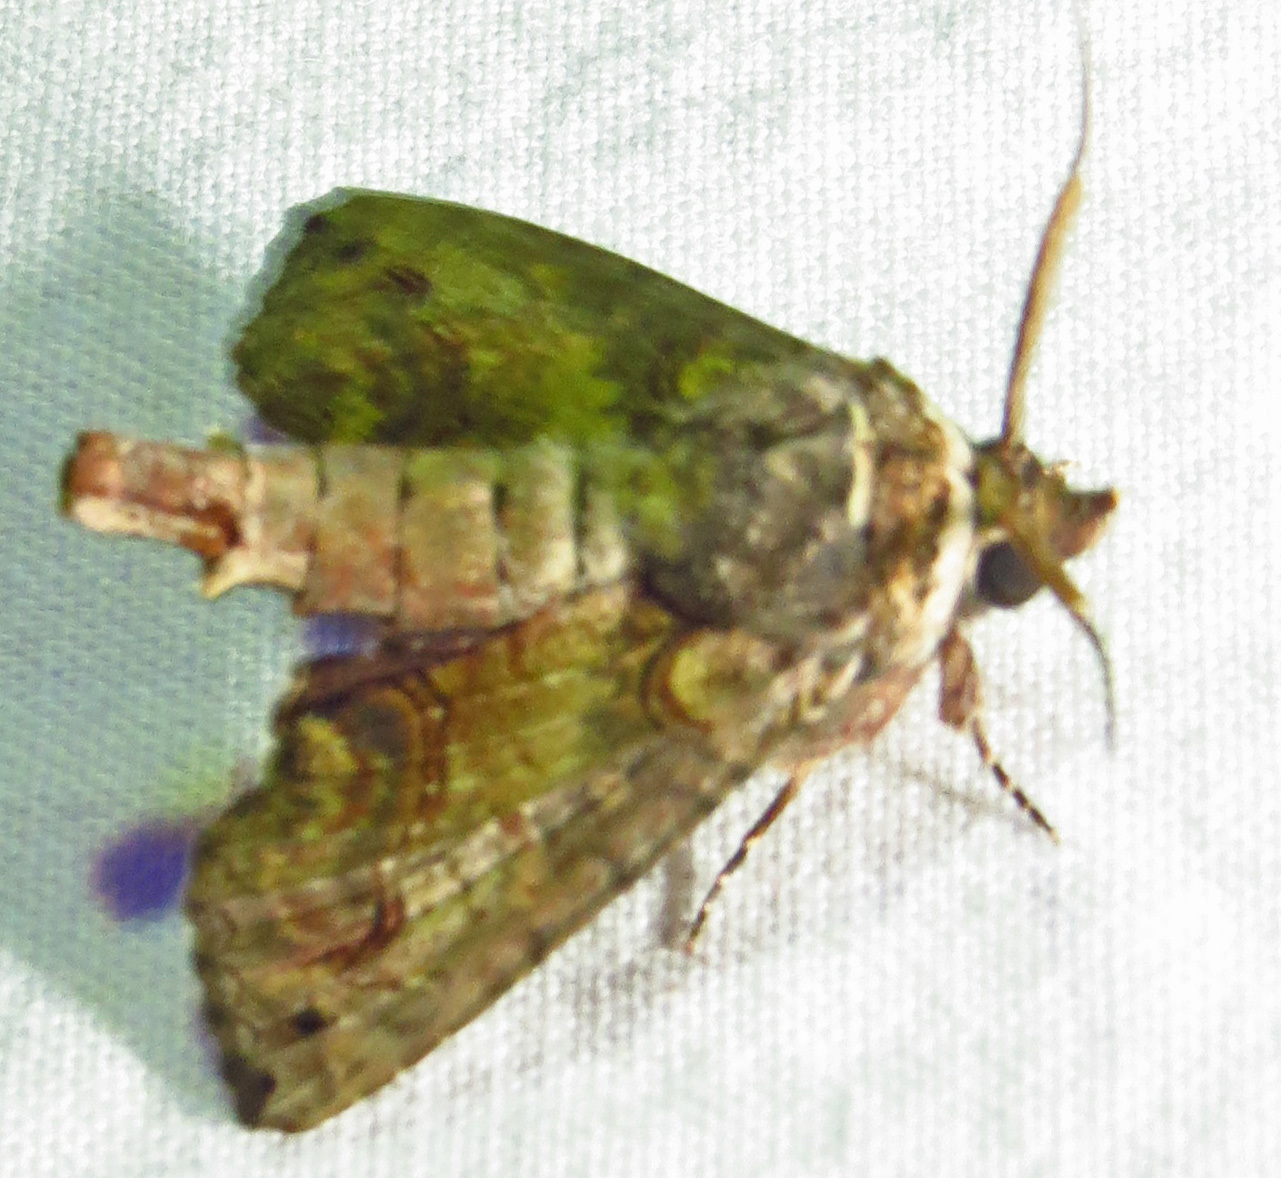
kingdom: Animalia
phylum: Arthropoda
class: Insecta
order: Lepidoptera
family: Euteliidae
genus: Paectes
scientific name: Paectes abrostoloides
